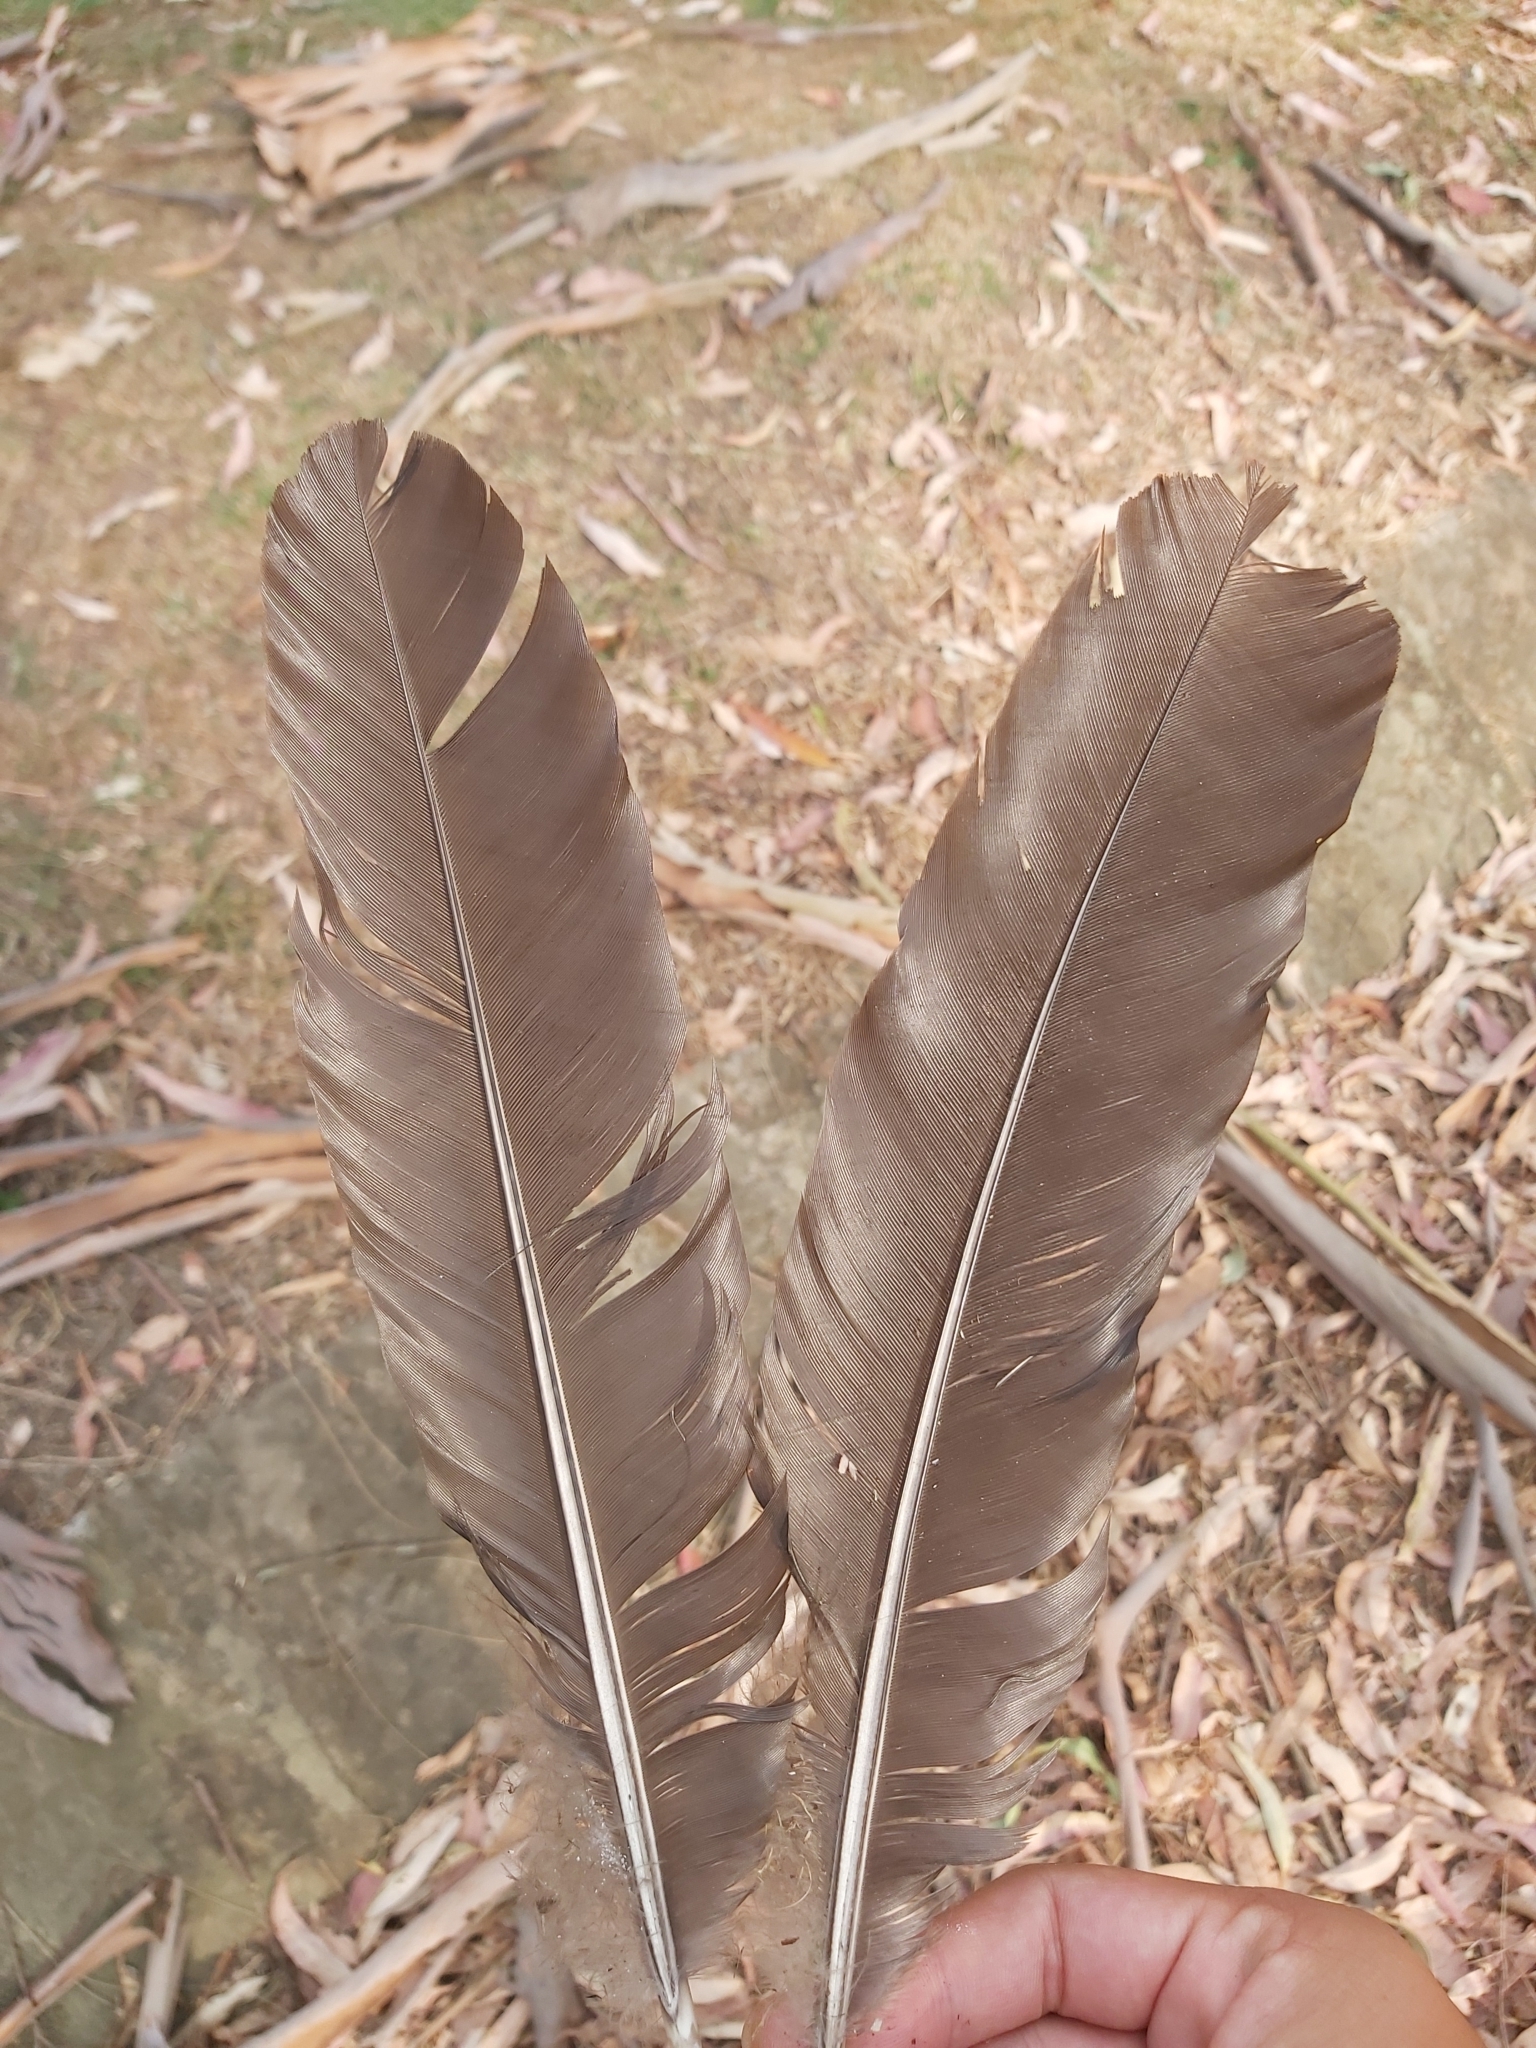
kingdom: Animalia
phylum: Chordata
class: Aves
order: Galliformes
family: Megapodiidae
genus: Alectura
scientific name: Alectura lathami
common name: Australian brushturkey
